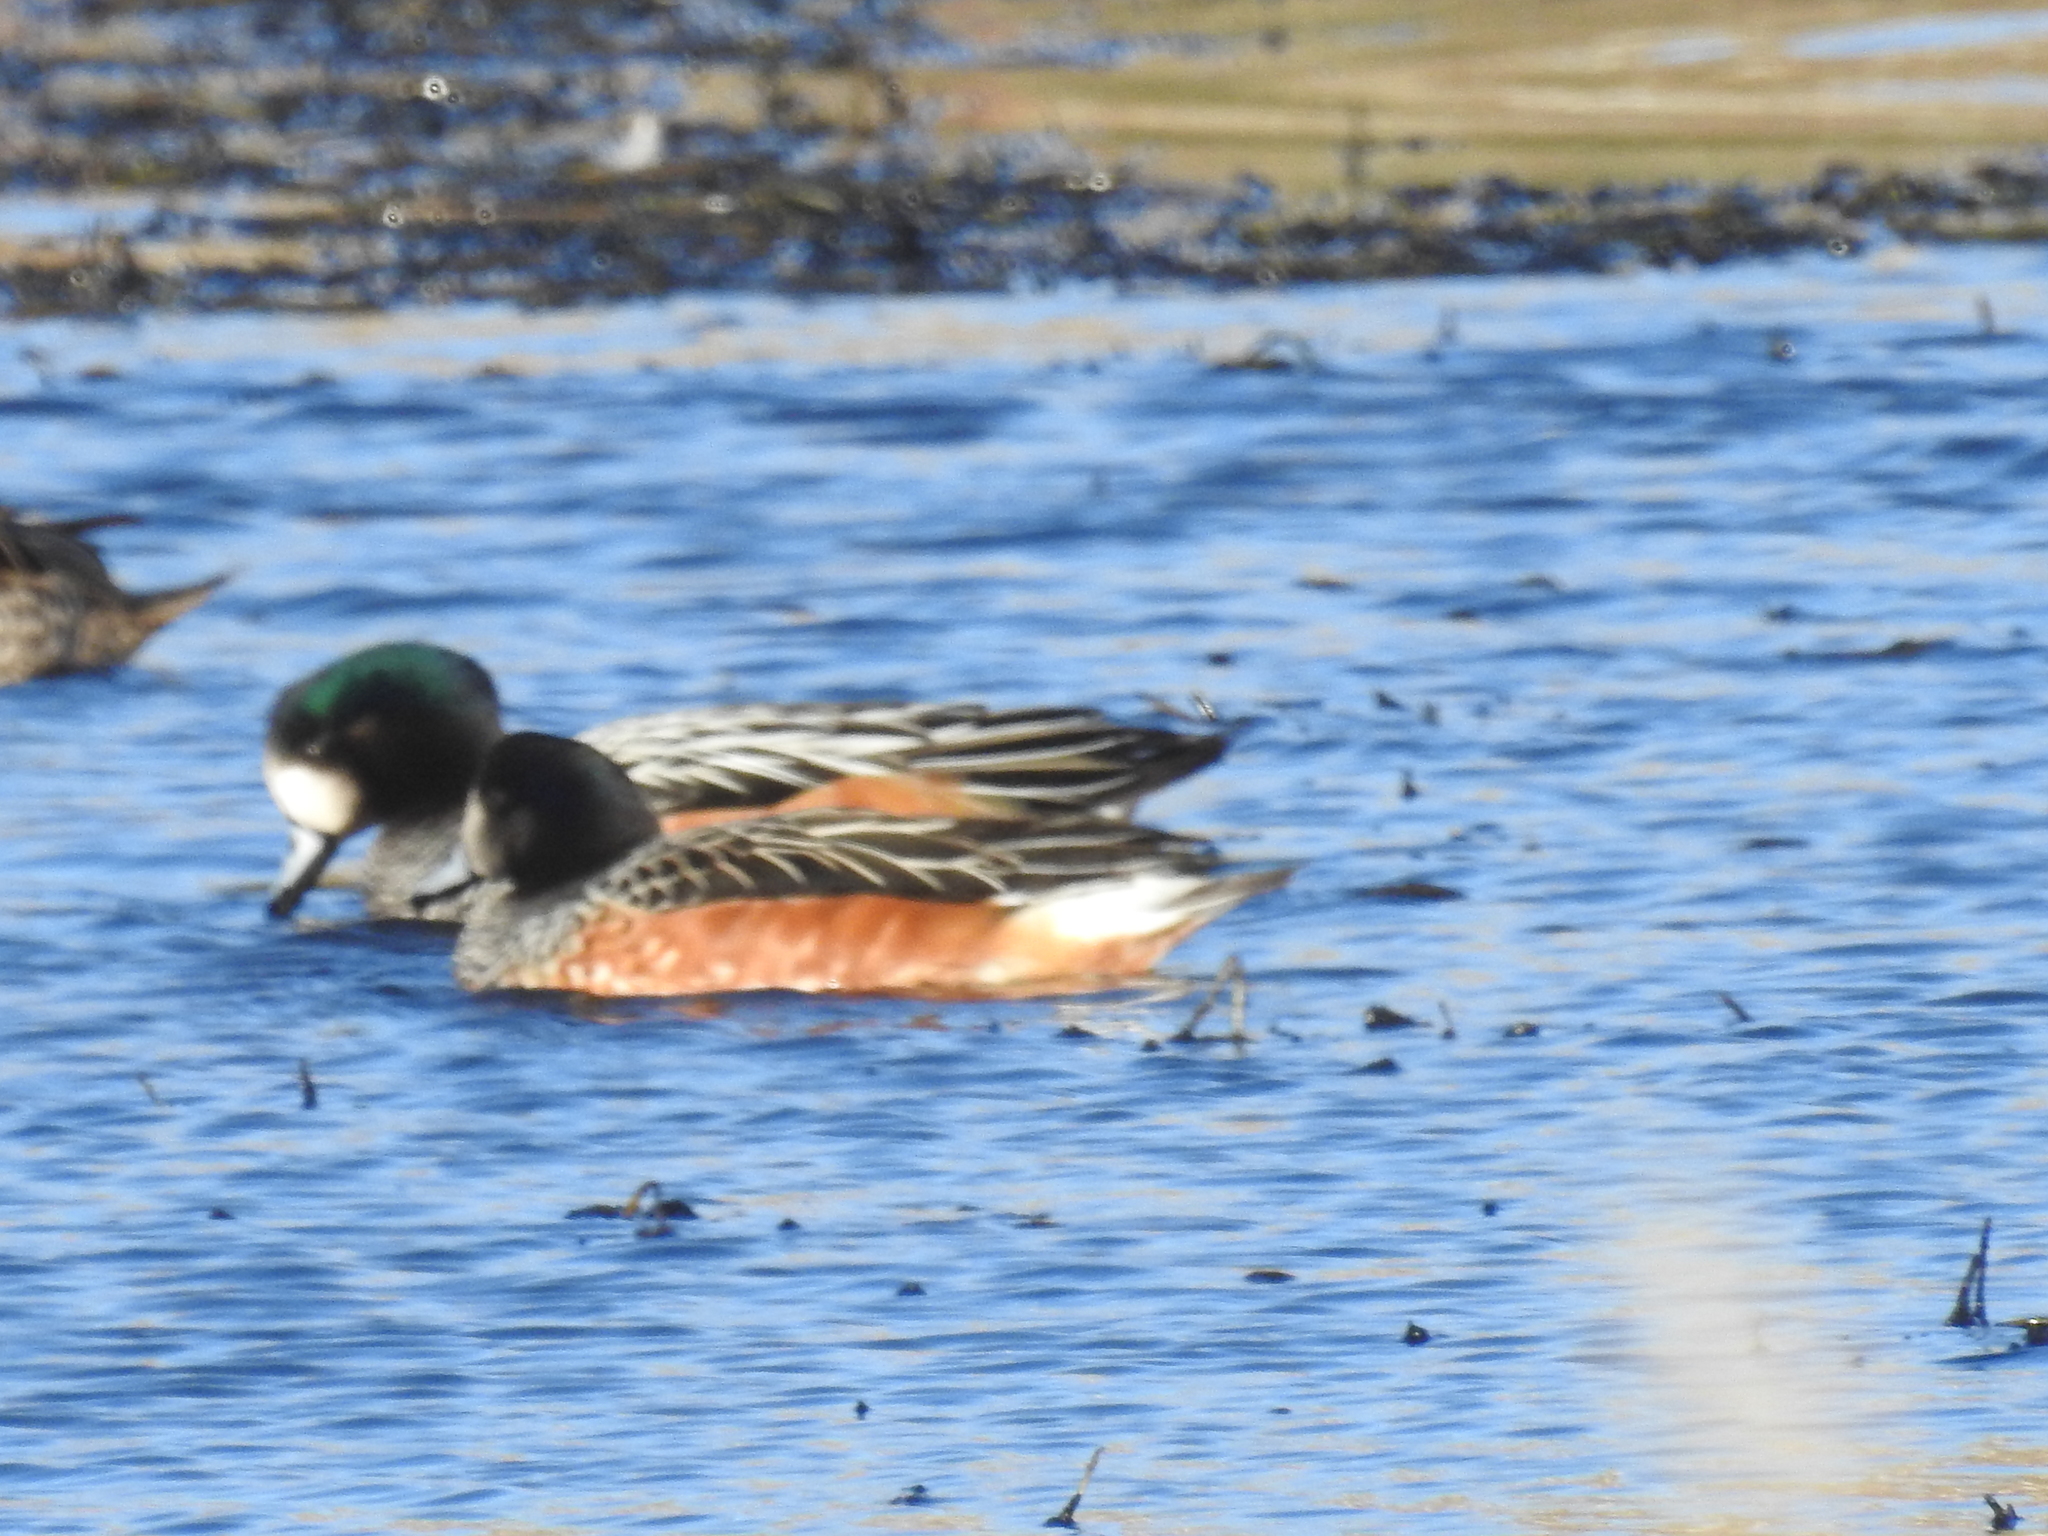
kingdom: Animalia
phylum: Chordata
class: Aves
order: Anseriformes
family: Anatidae
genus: Mareca
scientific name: Mareca sibilatrix
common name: Chiloe wigeon
